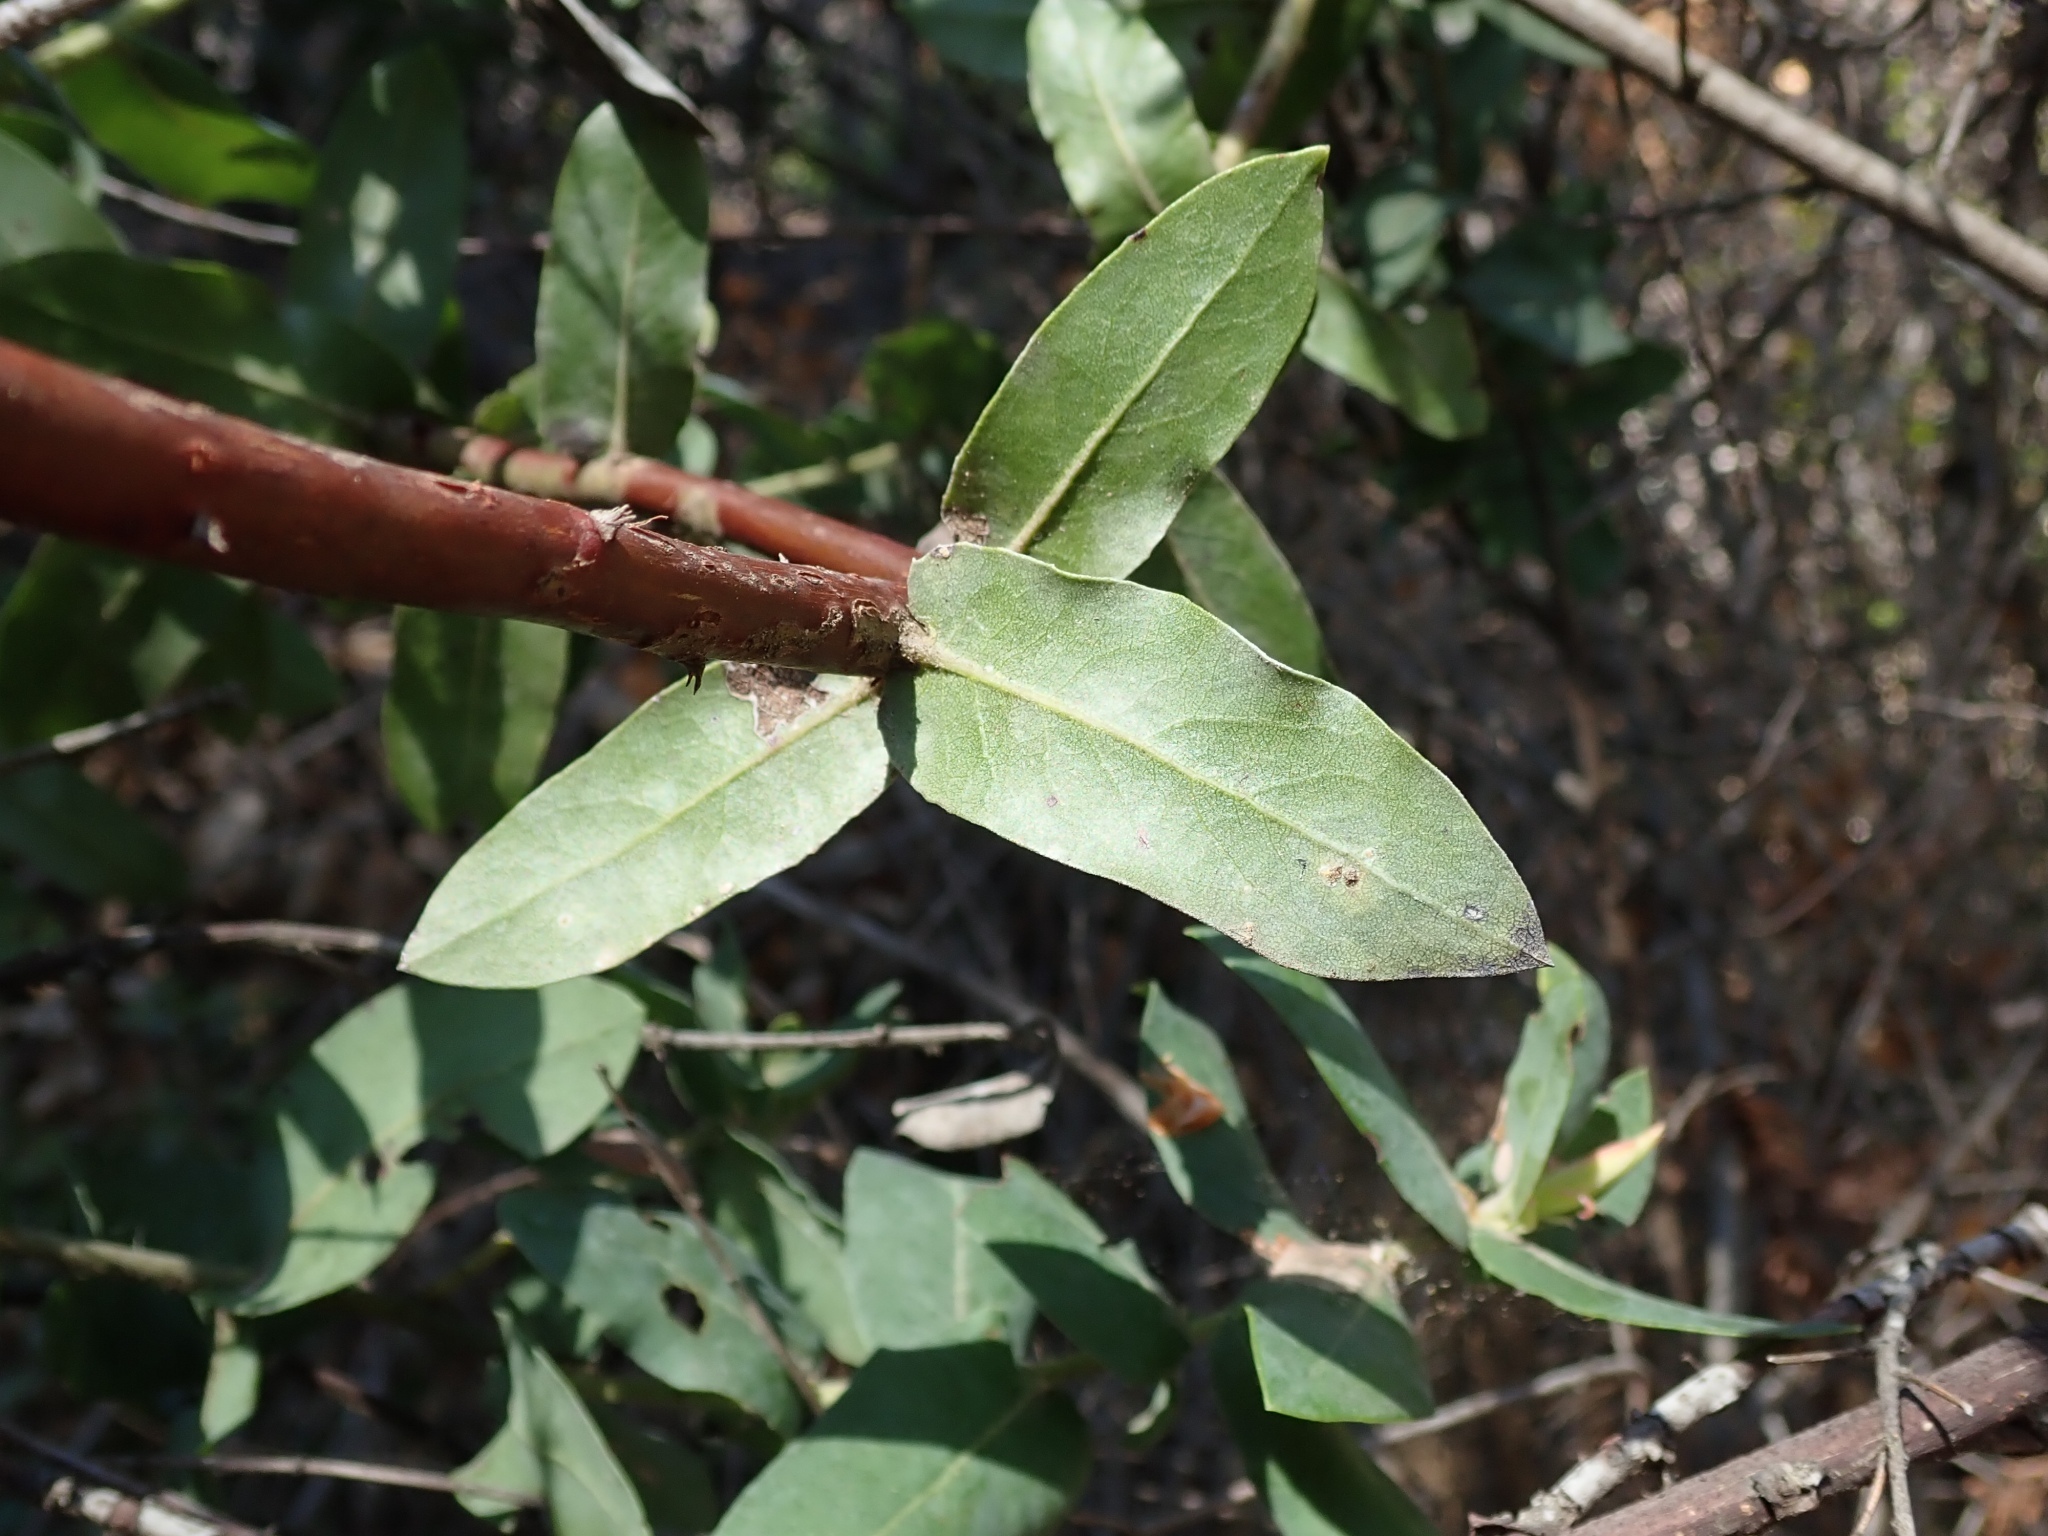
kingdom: Plantae
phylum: Tracheophyta
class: Magnoliopsida
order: Ericales
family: Ericaceae
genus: Arctostaphylos
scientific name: Arctostaphylos andersonii
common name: Santa cruz manzanita
